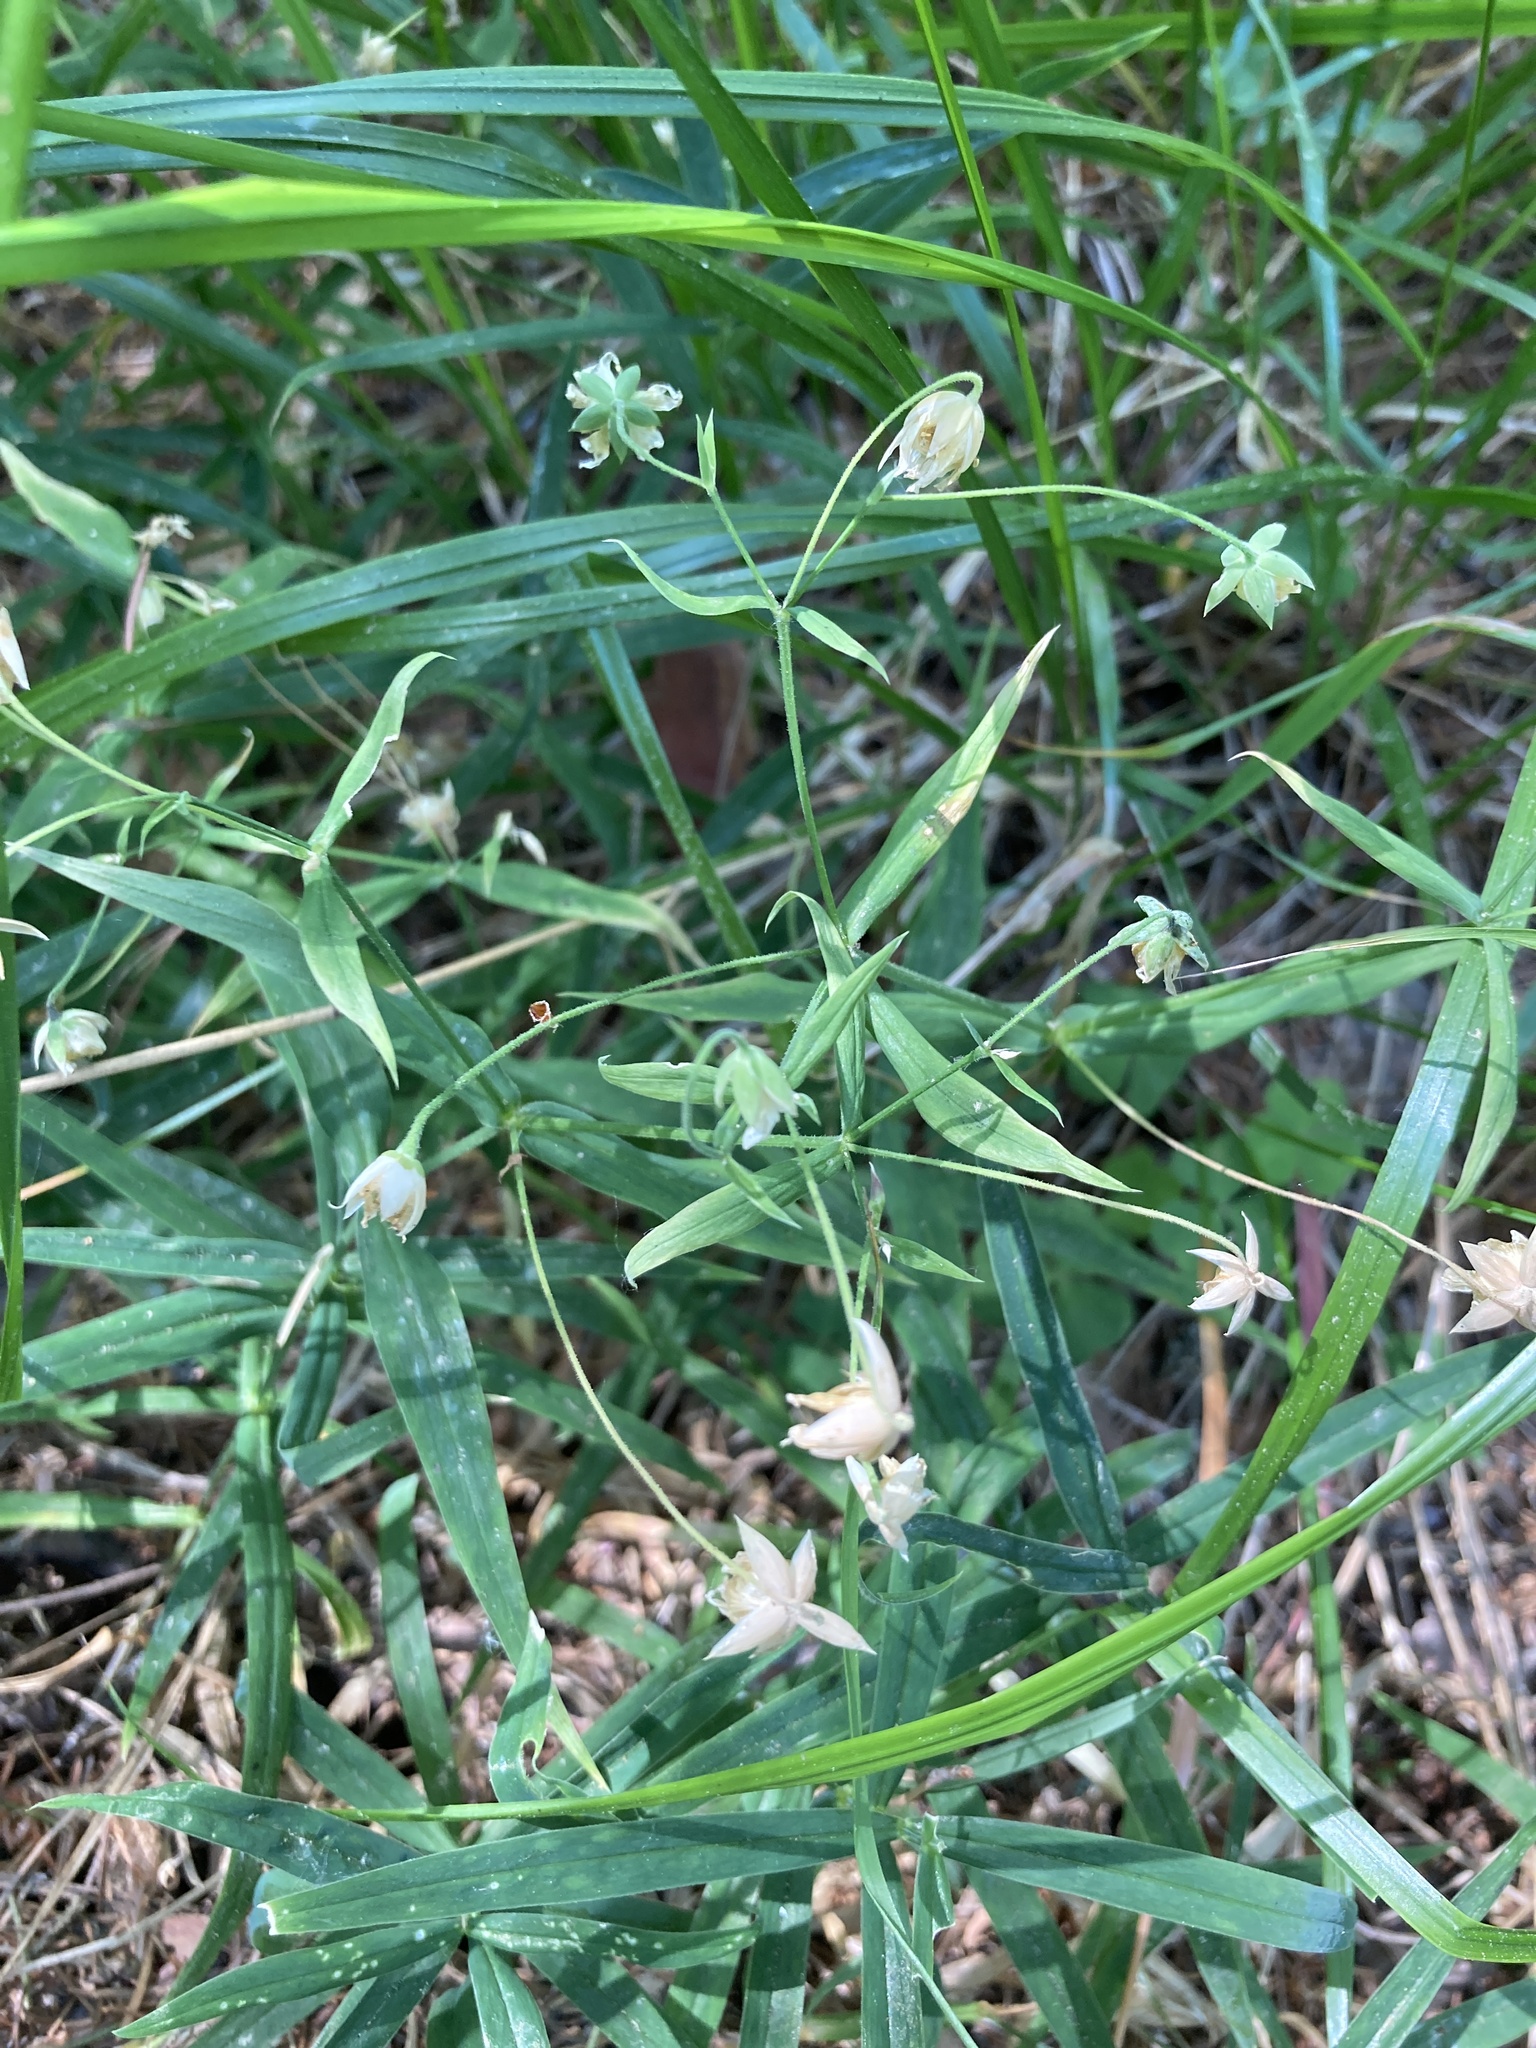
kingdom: Plantae
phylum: Tracheophyta
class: Magnoliopsida
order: Caryophyllales
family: Caryophyllaceae
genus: Rabelera
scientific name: Rabelera holostea
